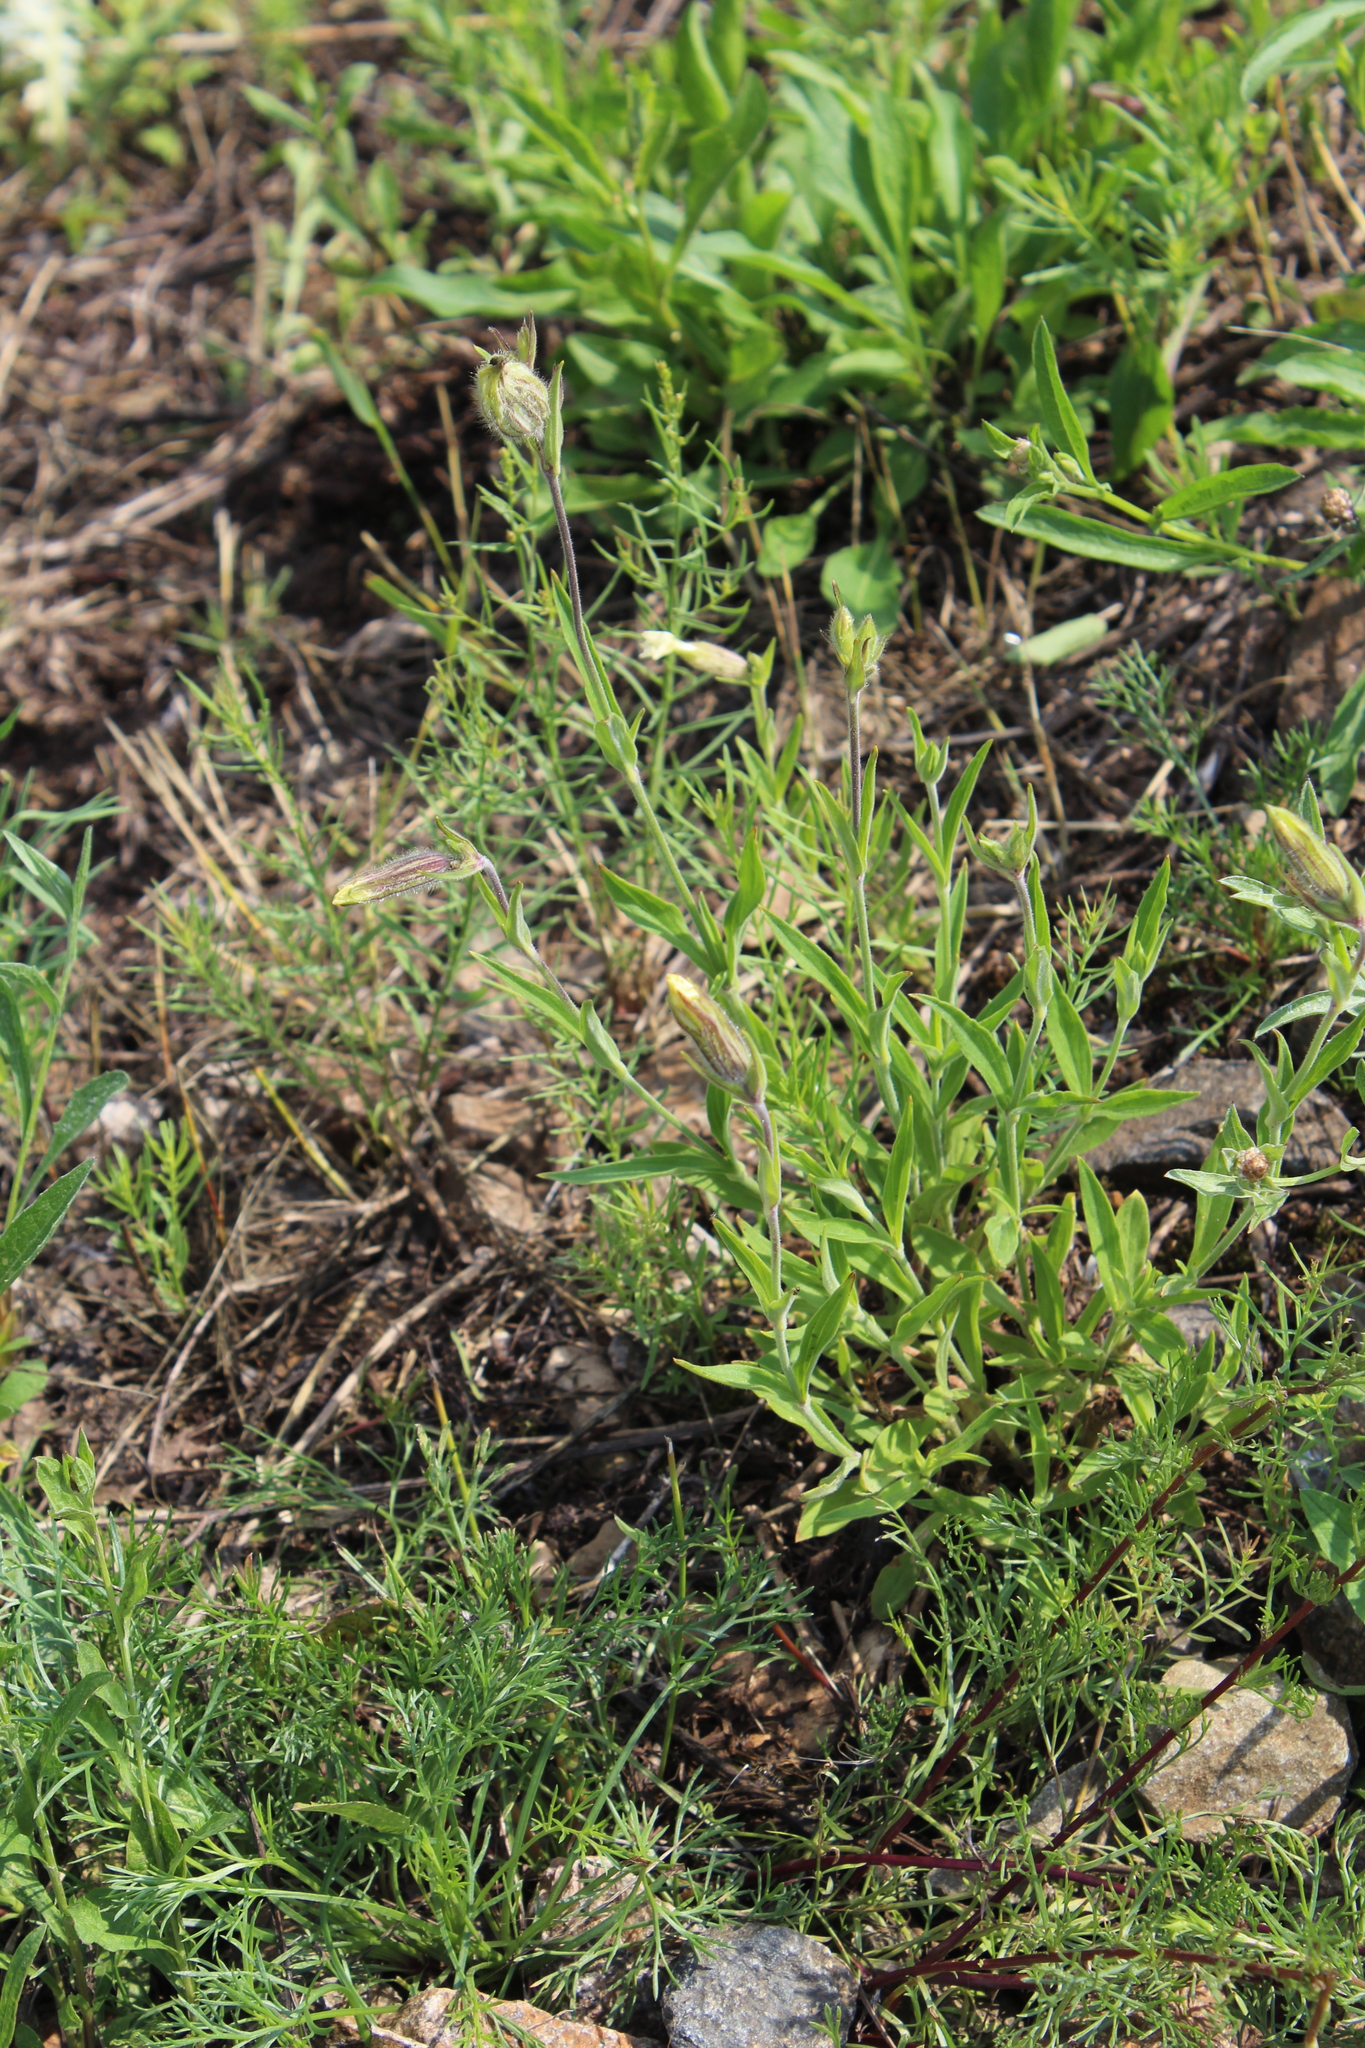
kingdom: Plantae
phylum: Tracheophyta
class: Magnoliopsida
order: Caryophyllales
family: Caryophyllaceae
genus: Silene
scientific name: Silene latifolia
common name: White campion
